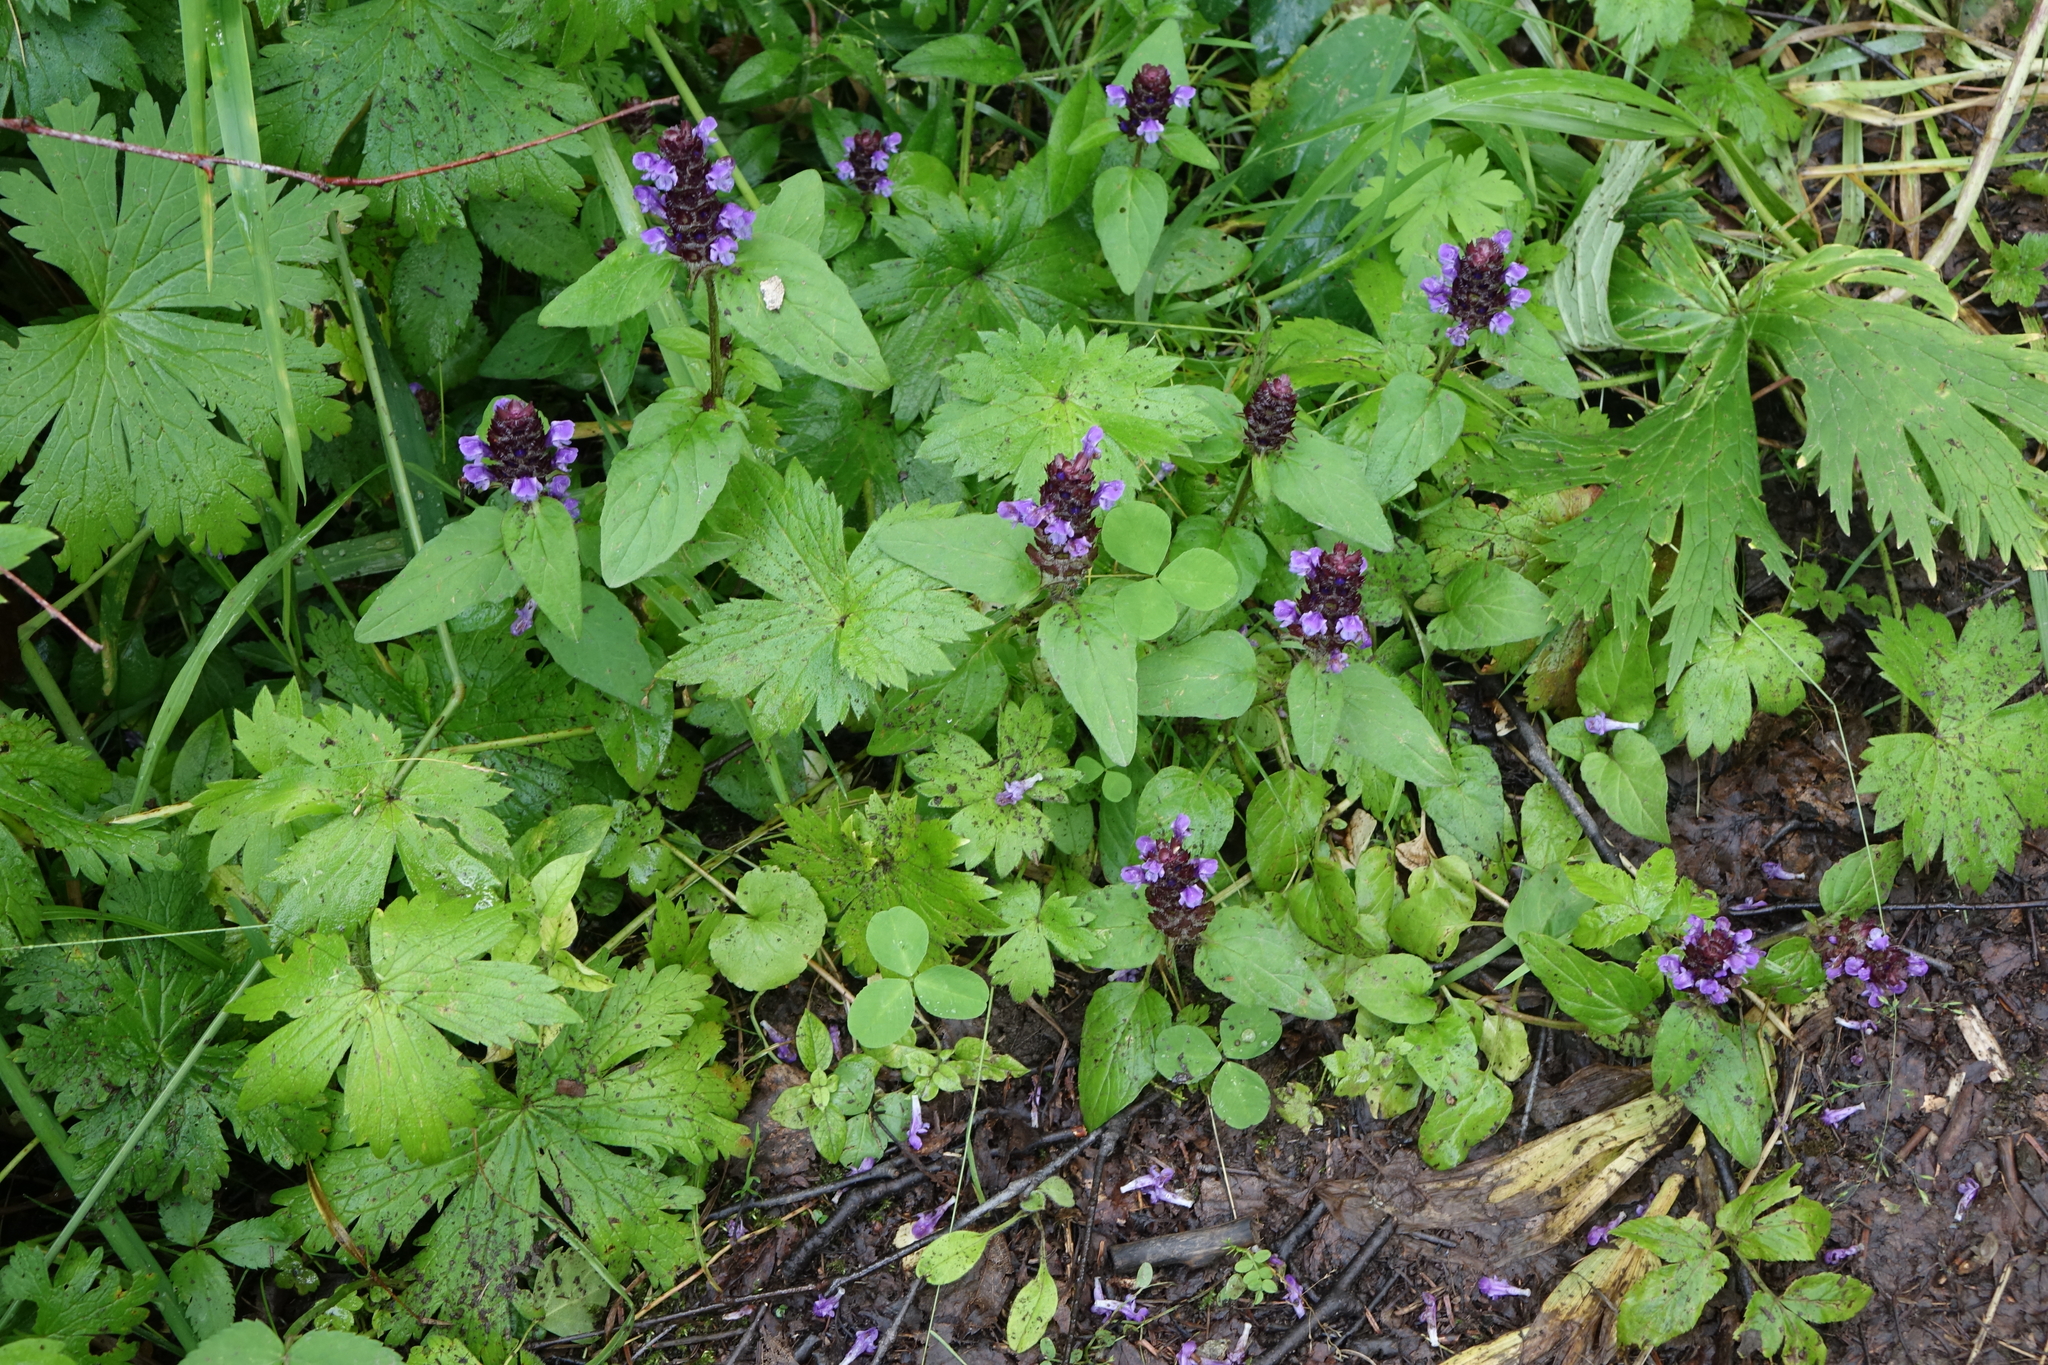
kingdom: Plantae
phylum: Tracheophyta
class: Magnoliopsida
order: Lamiales
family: Lamiaceae
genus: Prunella
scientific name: Prunella vulgaris
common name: Heal-all
